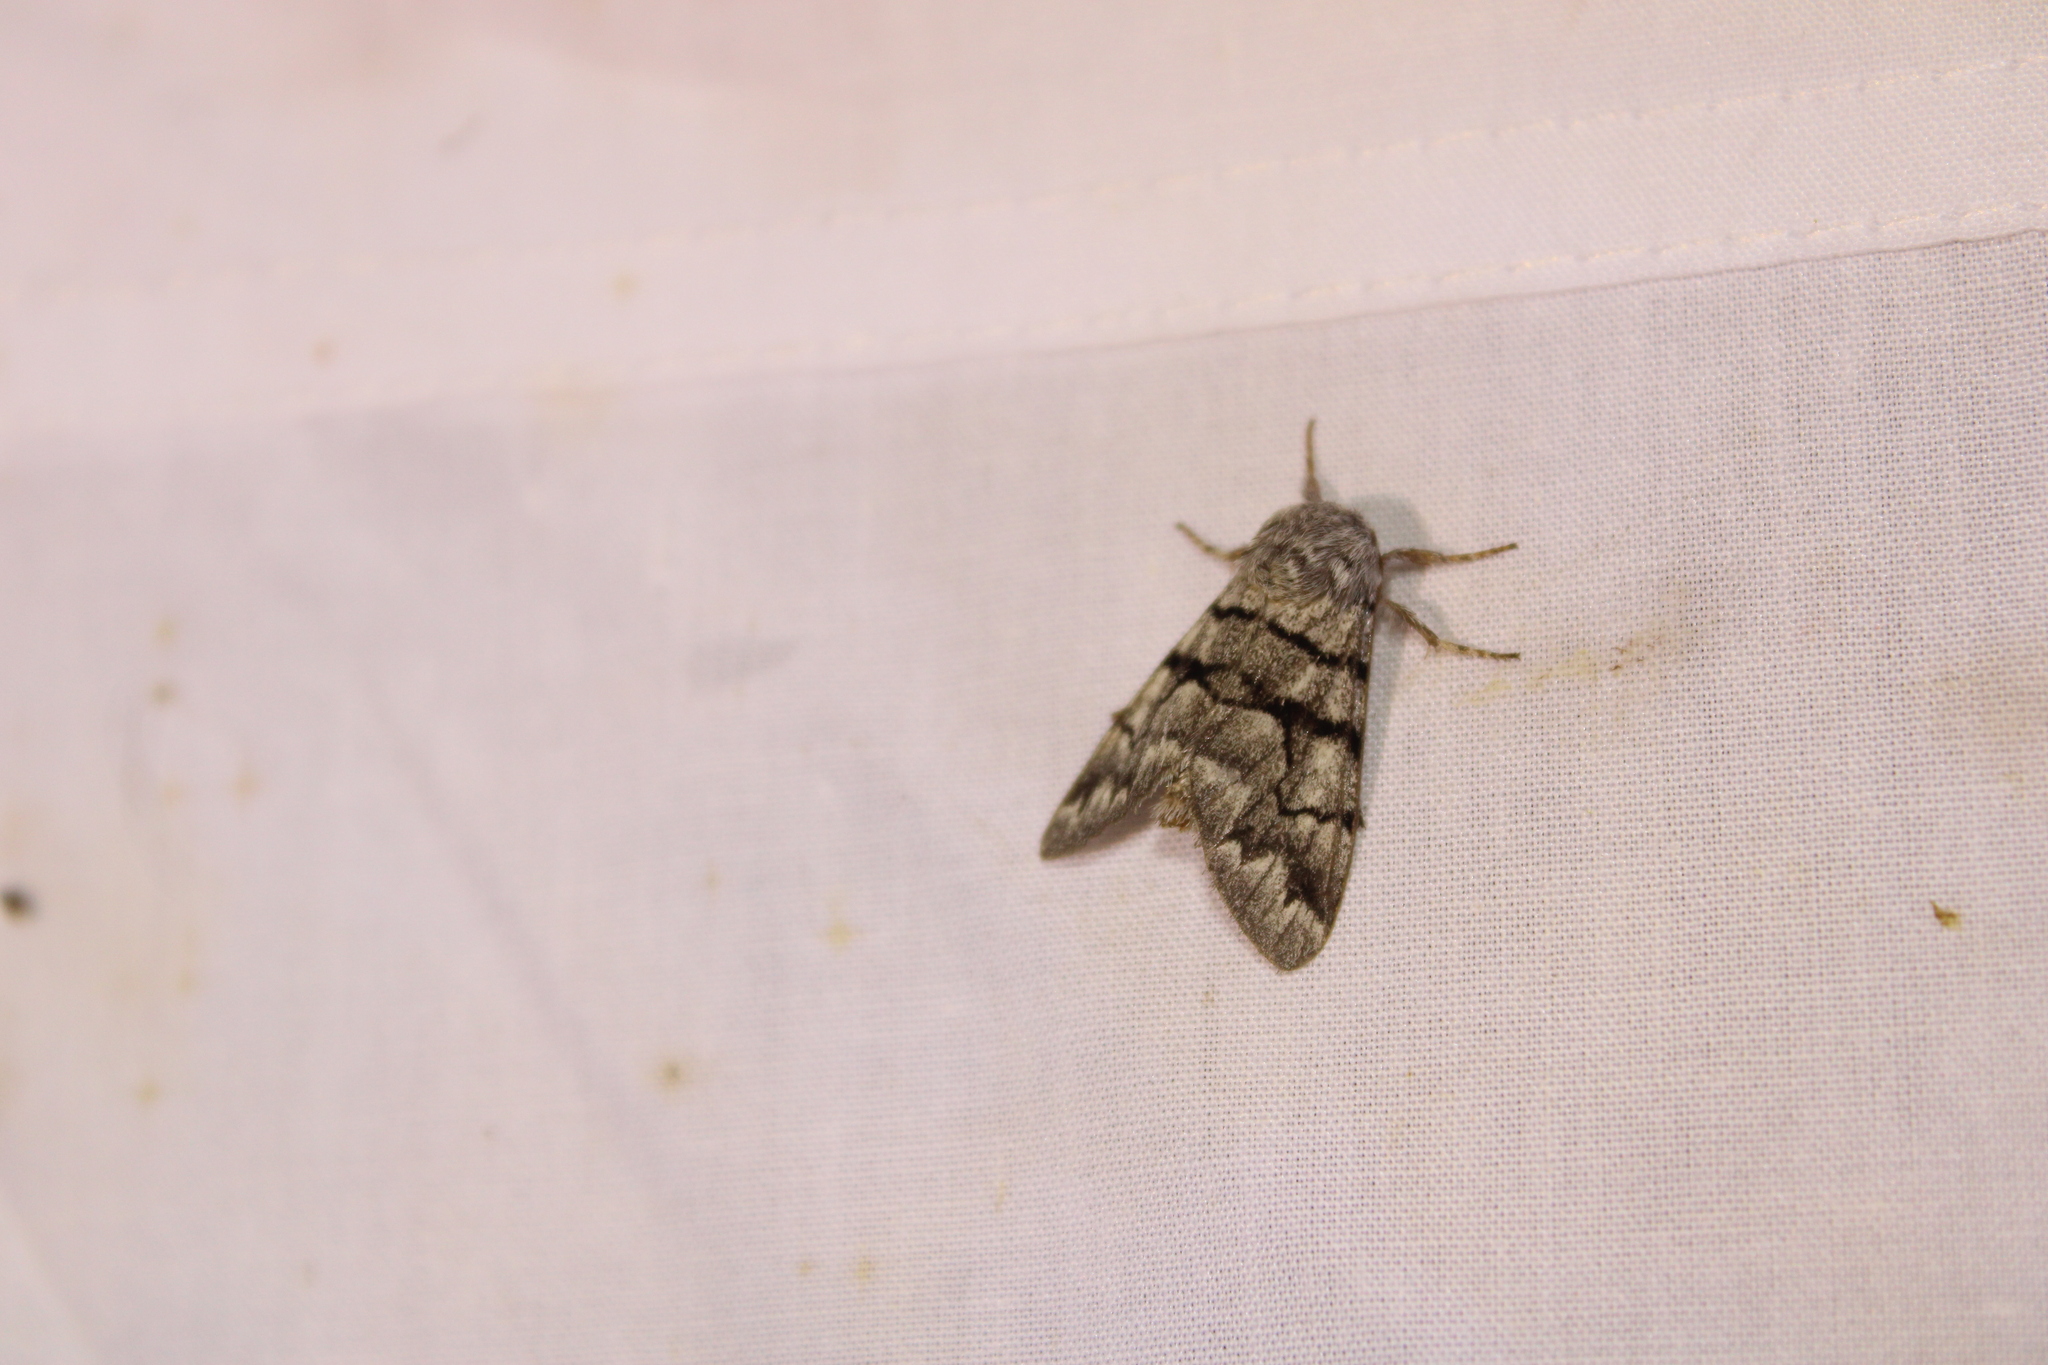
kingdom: Animalia
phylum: Arthropoda
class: Insecta
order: Lepidoptera
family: Noctuidae
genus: Panthea
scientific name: Panthea furcilla
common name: Eastern panthea moth
